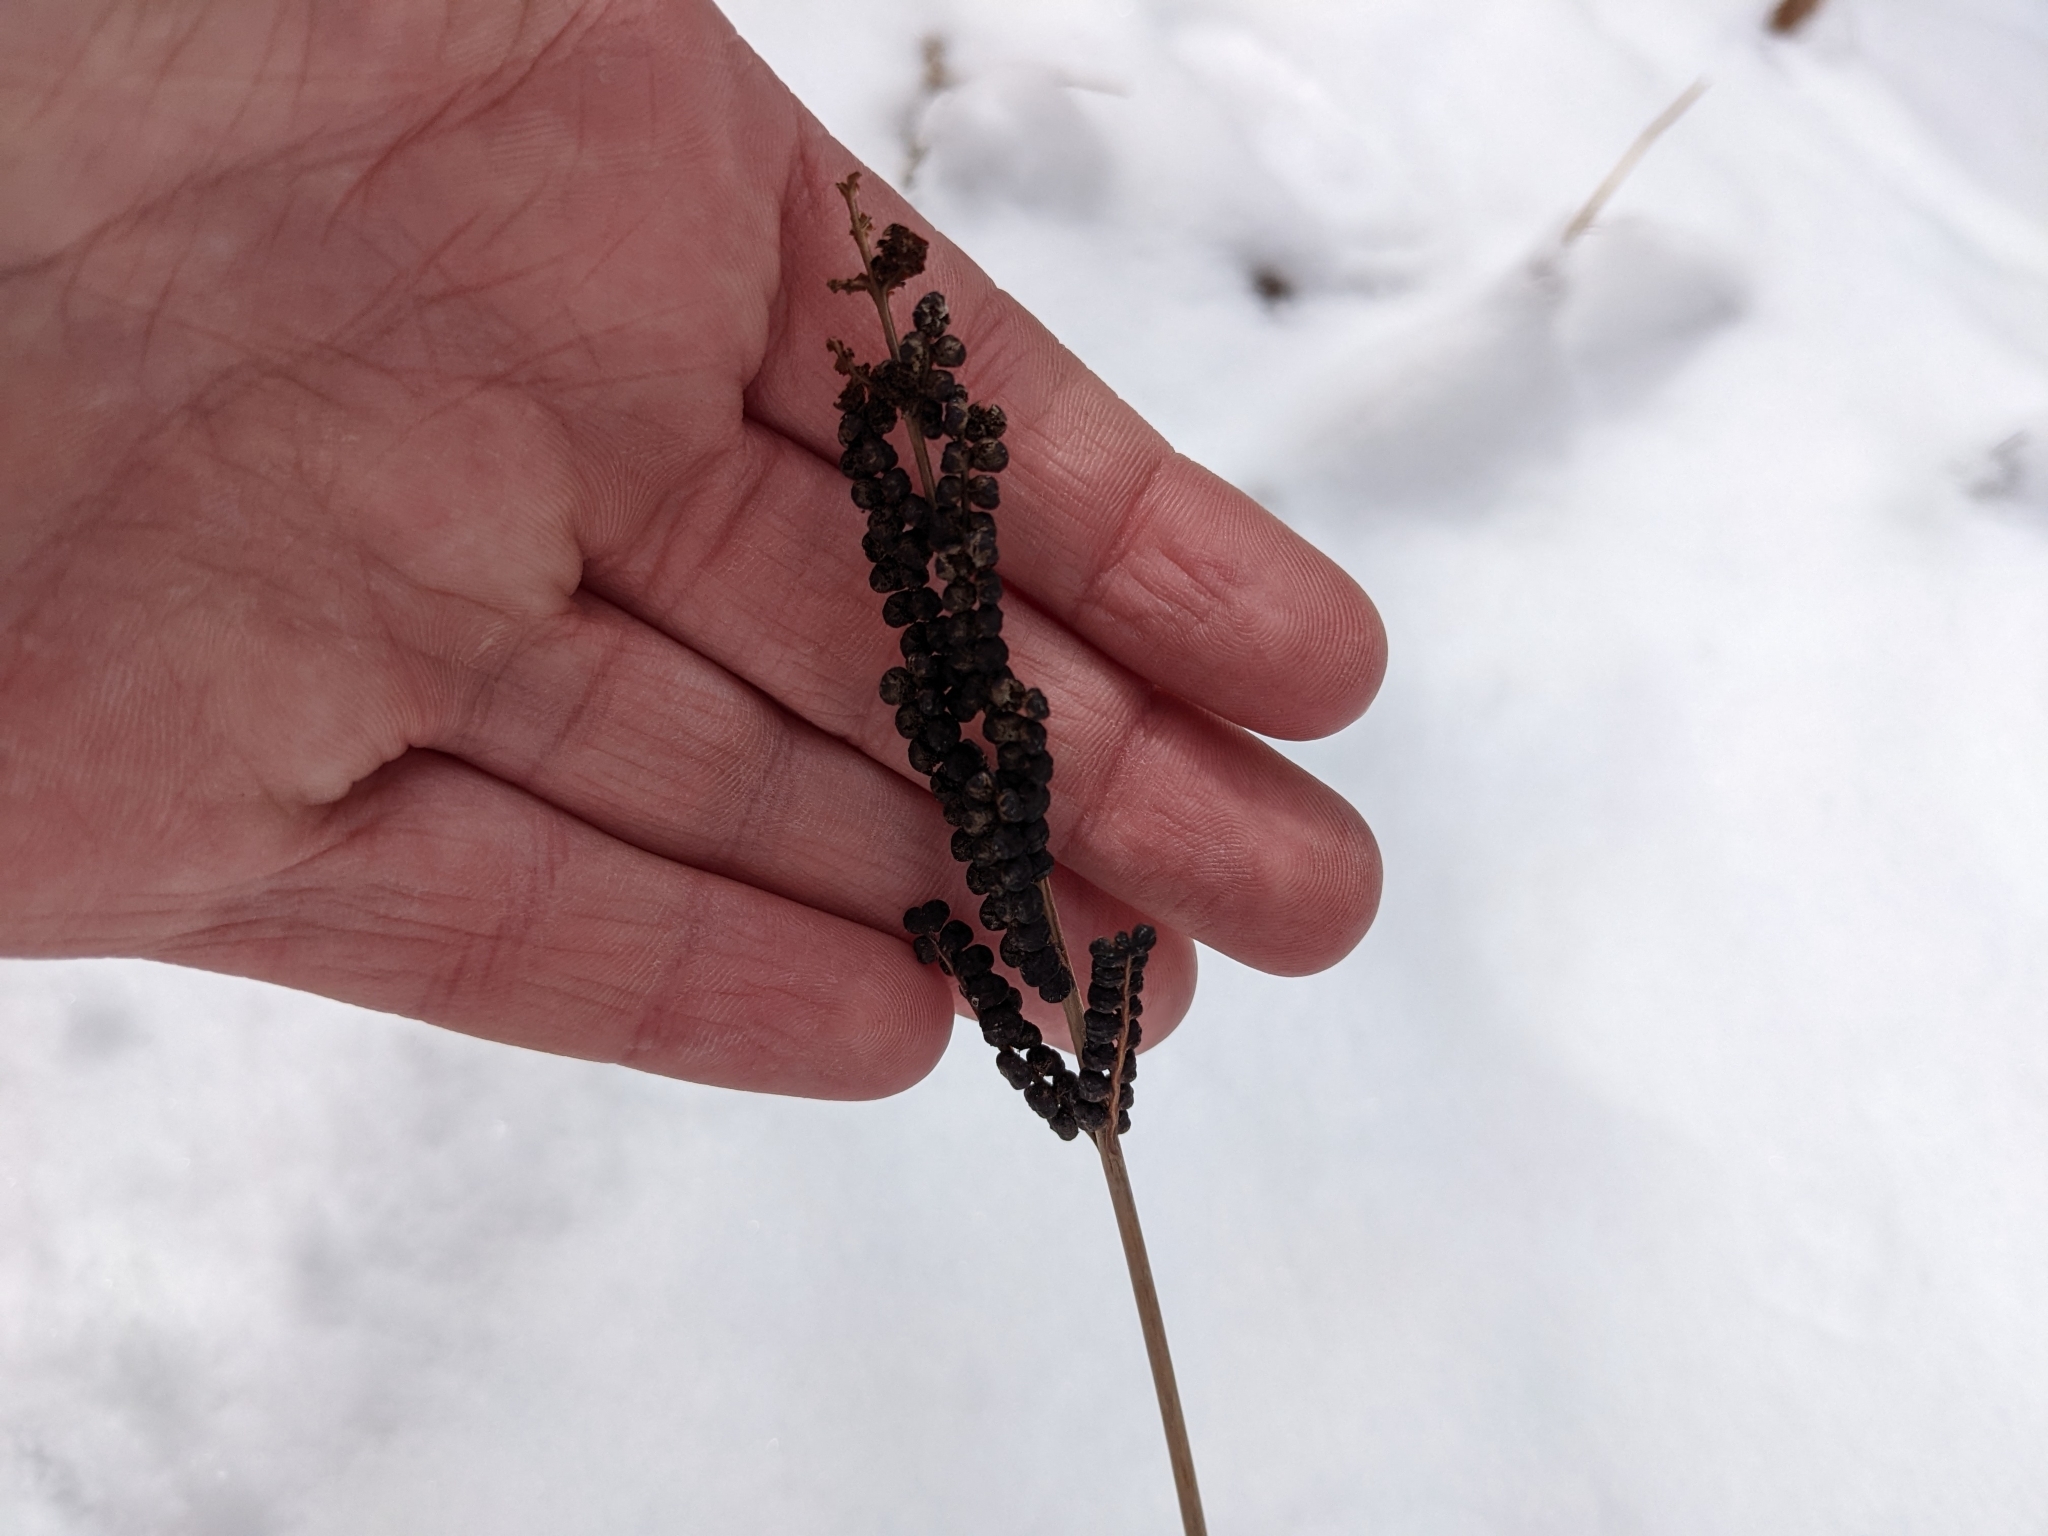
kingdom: Plantae
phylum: Tracheophyta
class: Polypodiopsida
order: Polypodiales
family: Onocleaceae
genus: Onoclea
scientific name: Onoclea sensibilis
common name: Sensitive fern
